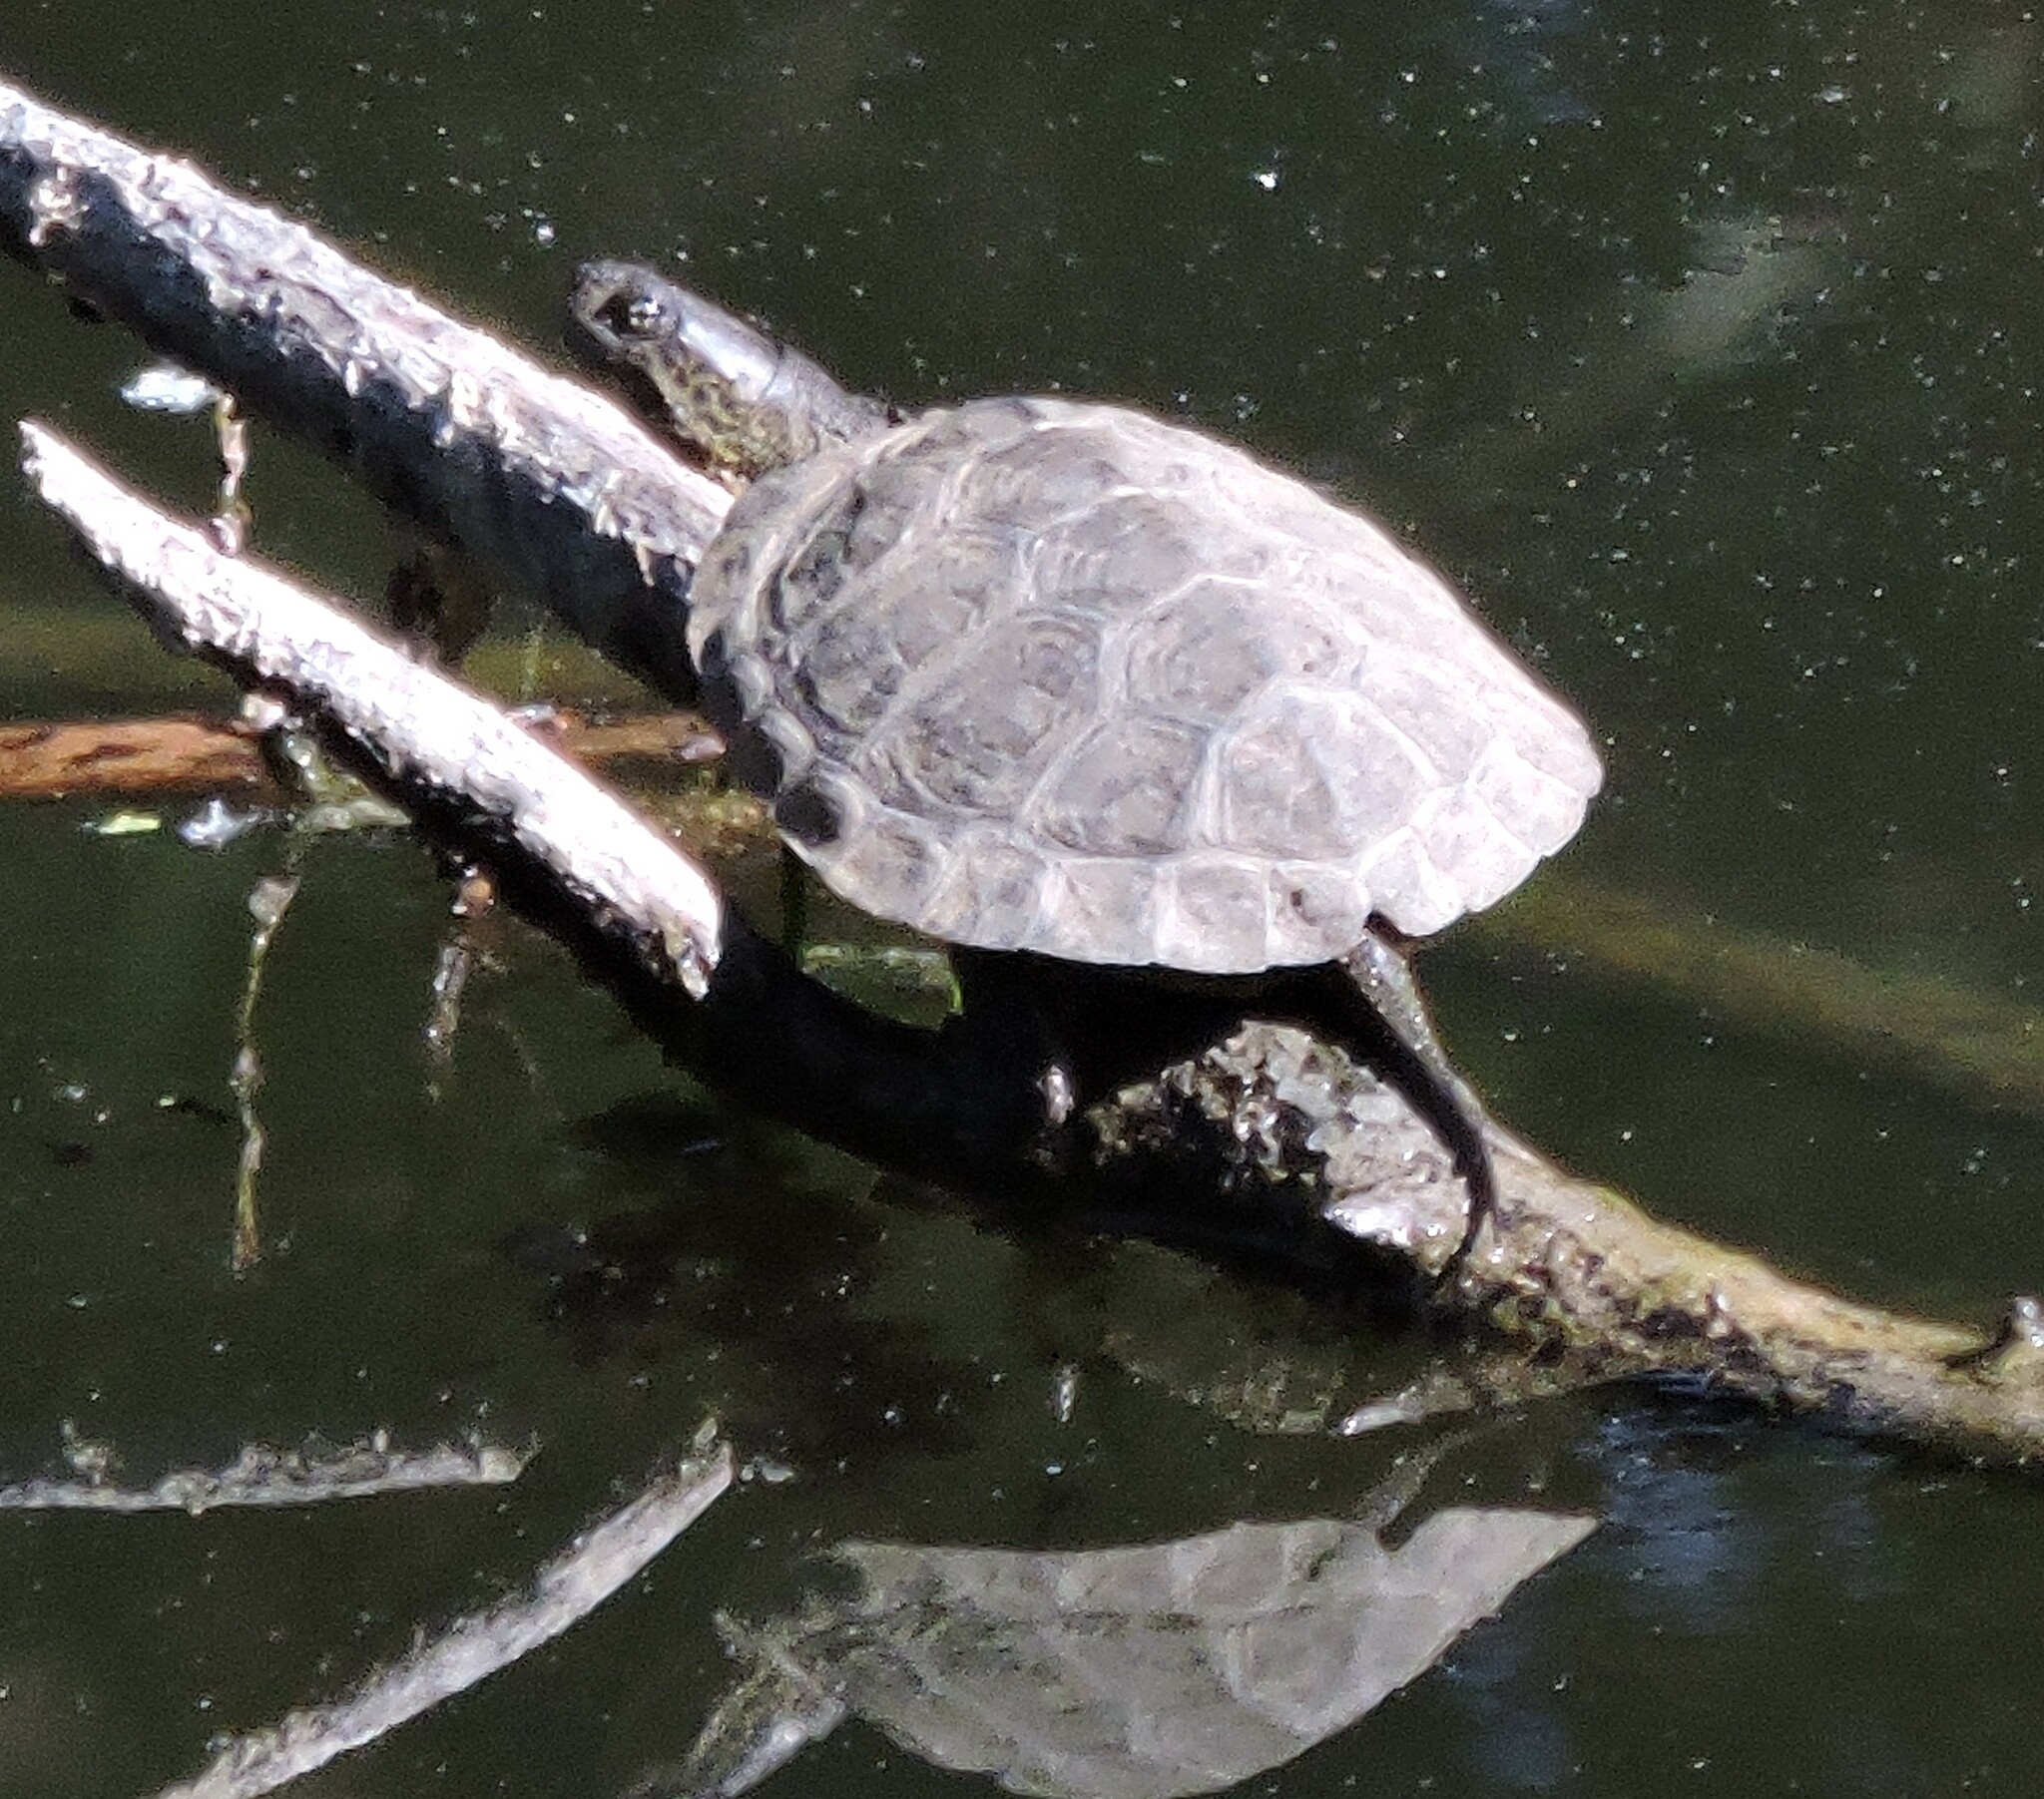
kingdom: Animalia
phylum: Chordata
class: Testudines
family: Emydidae
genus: Actinemys
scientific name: Actinemys marmorata
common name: Western pond turtle
